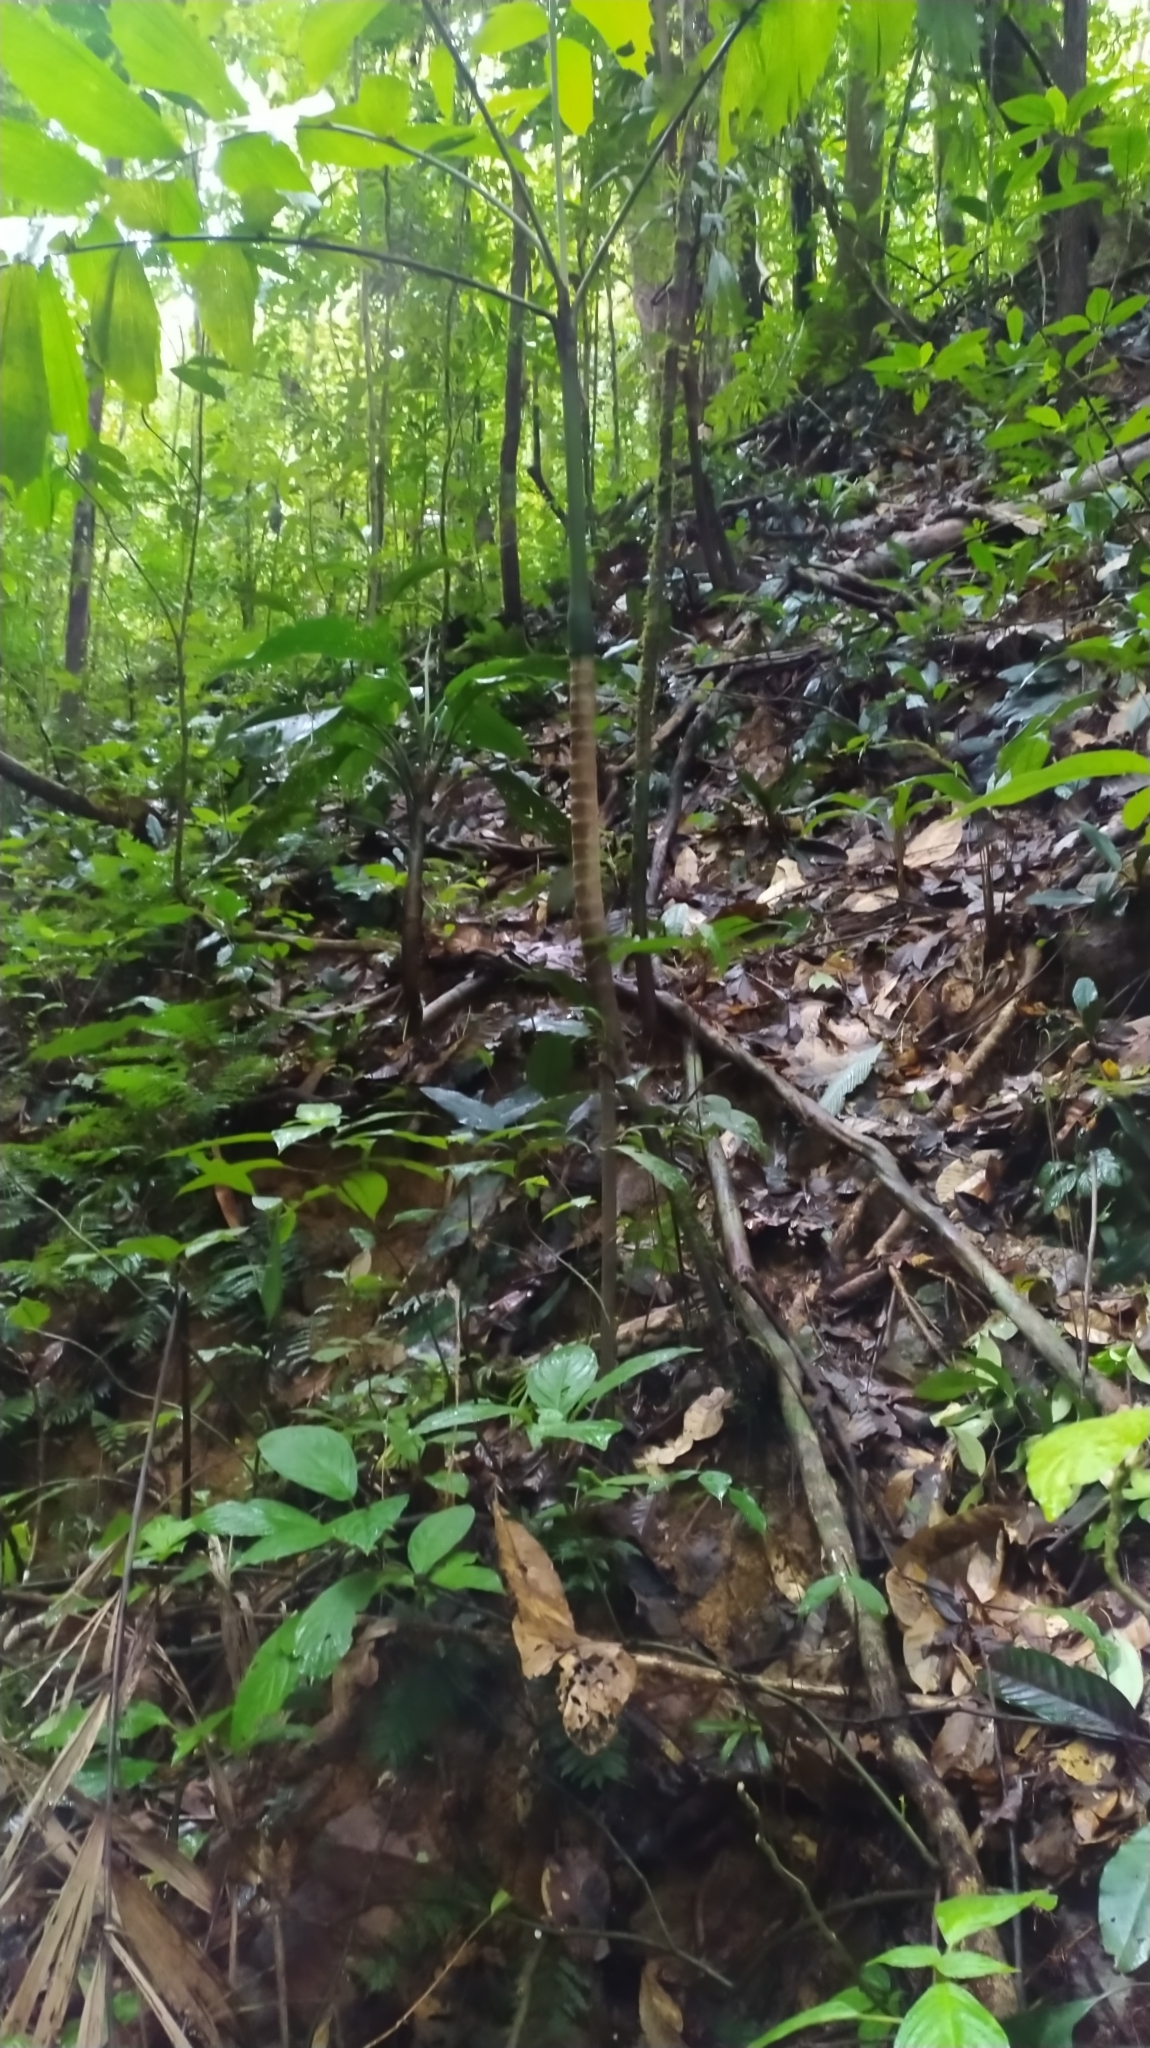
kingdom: Plantae
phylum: Tracheophyta
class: Liliopsida
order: Arecales
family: Arecaceae
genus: Socratea
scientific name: Socratea exorrhiza
